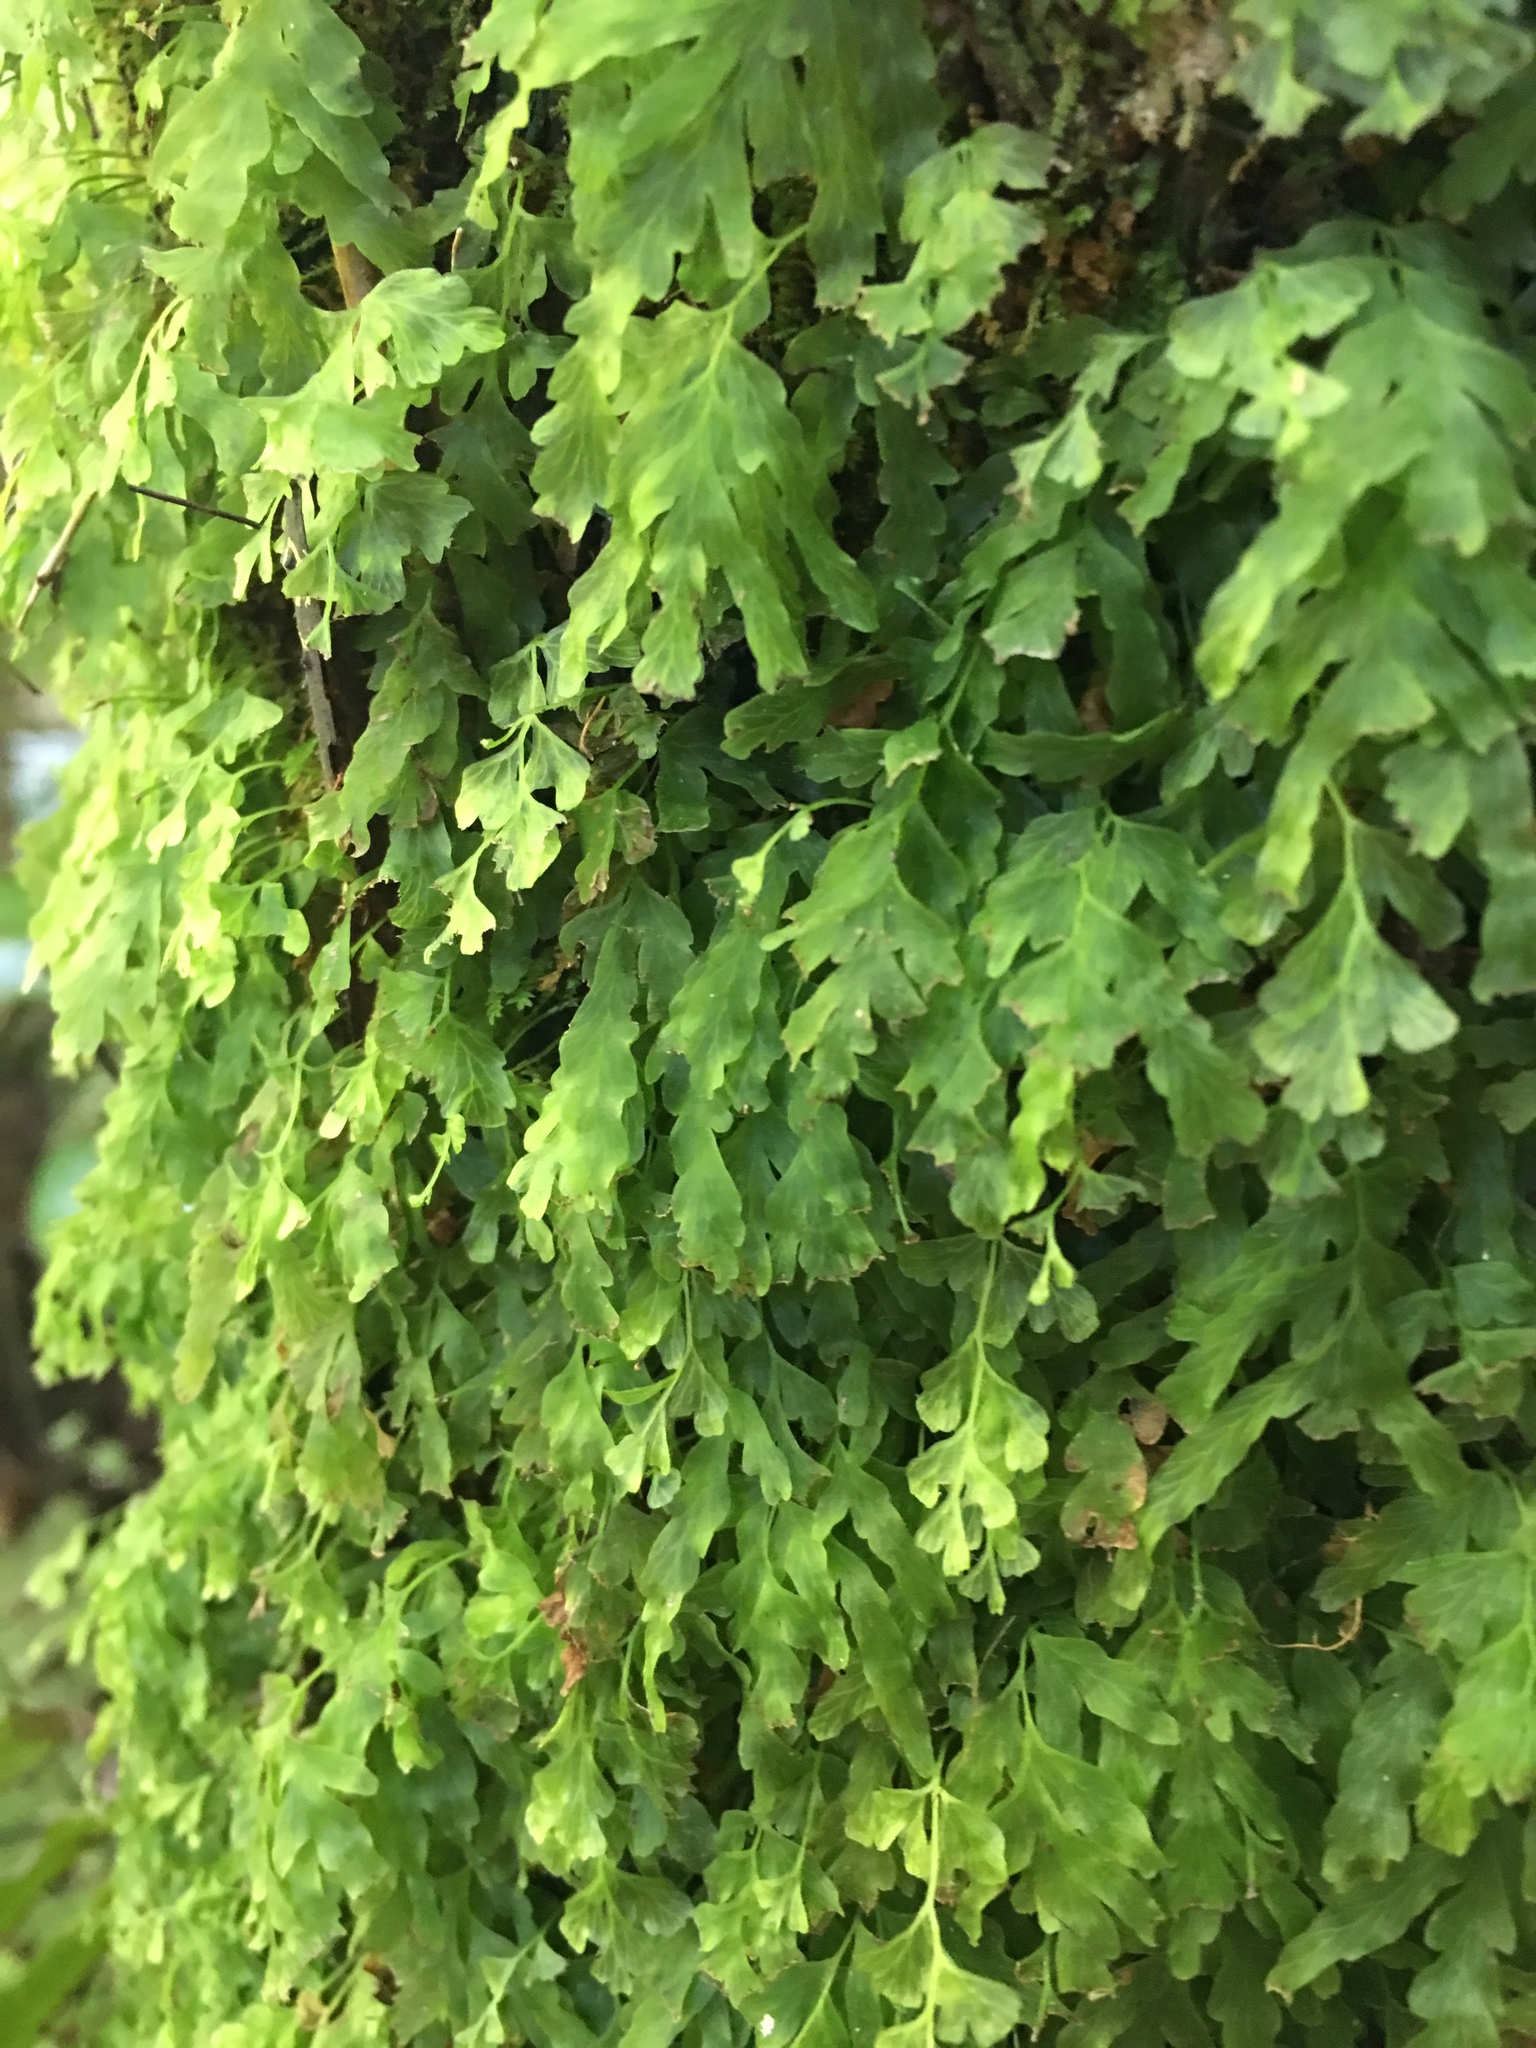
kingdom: Plantae
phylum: Tracheophyta
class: Polypodiopsida
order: Hymenophyllales
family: Hymenophyllaceae
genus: Polyphlebium
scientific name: Polyphlebium venosum
